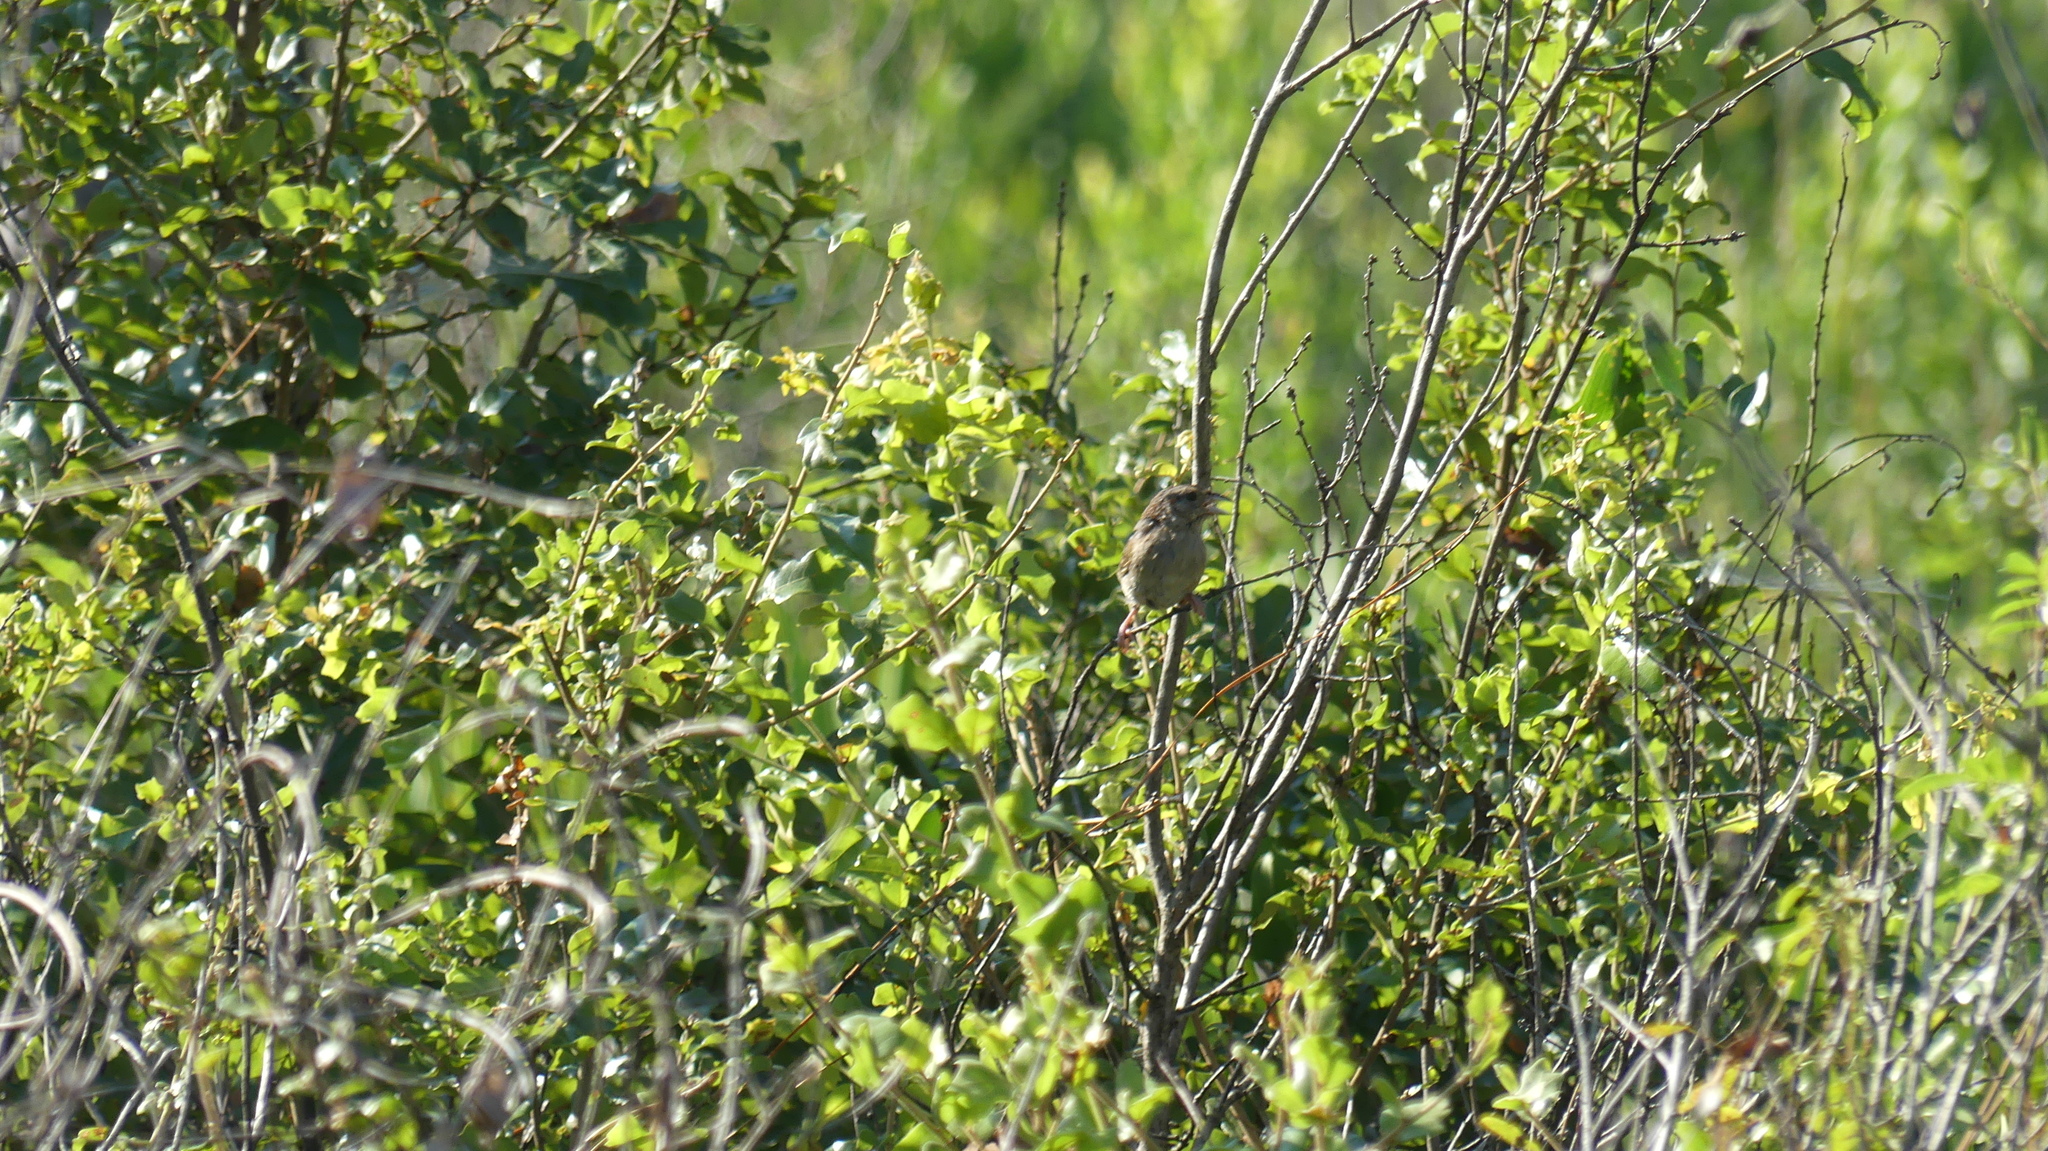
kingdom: Animalia
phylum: Chordata
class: Aves
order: Passeriformes
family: Passerellidae
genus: Peucaea
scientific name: Peucaea aestivalis
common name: Bachman's sparrow
